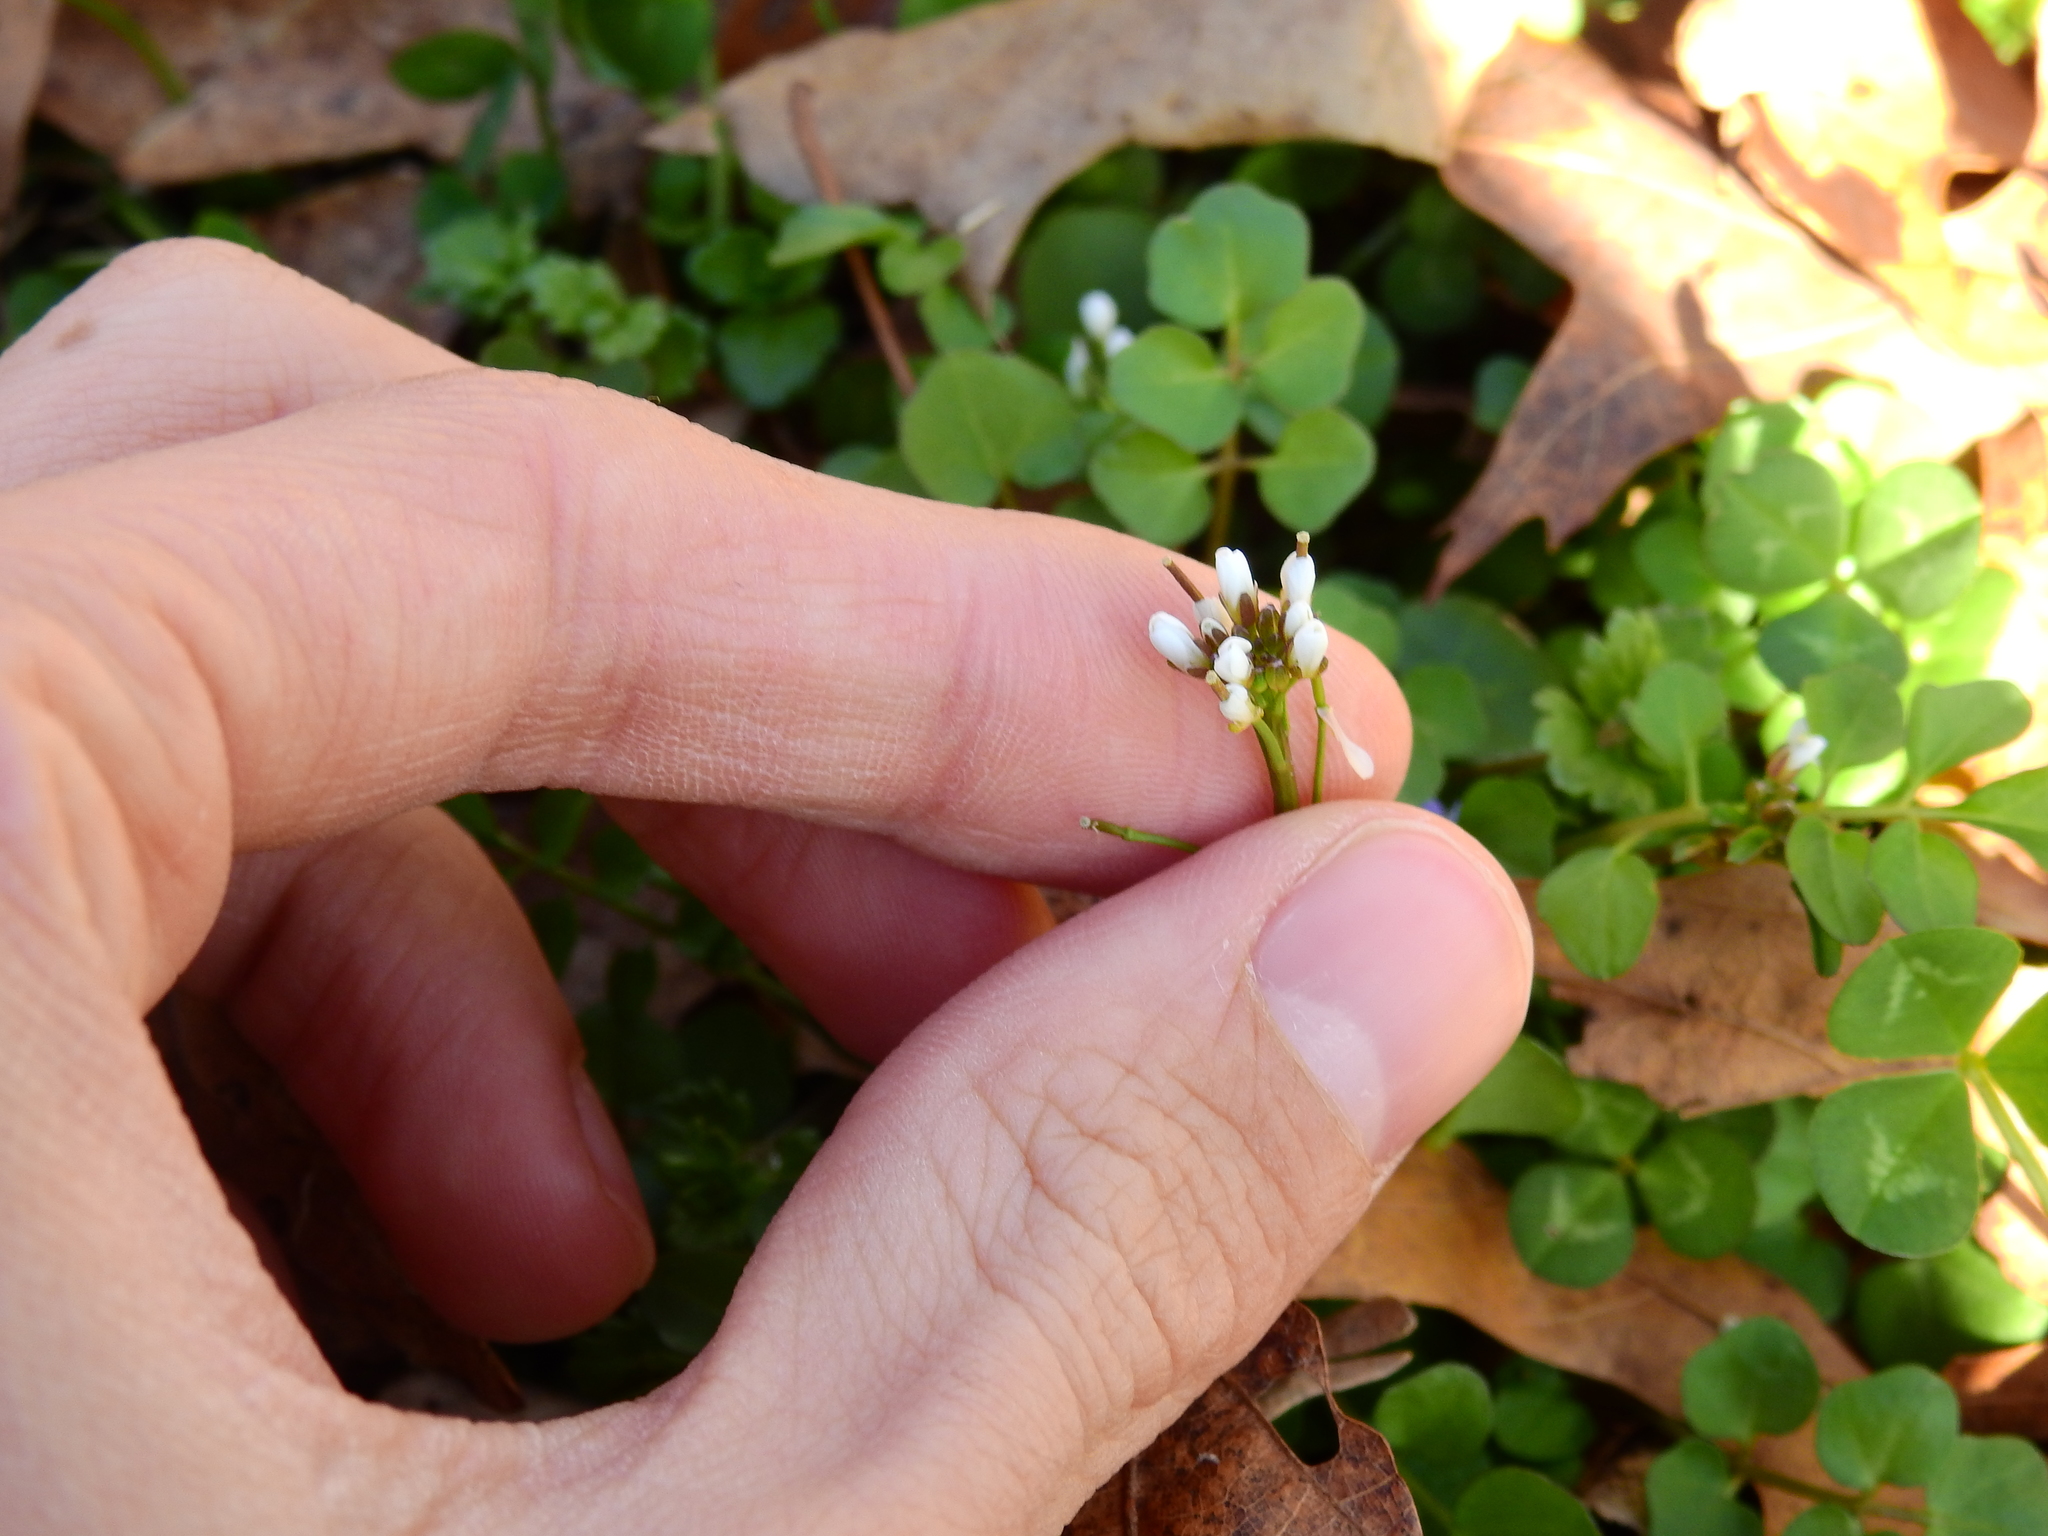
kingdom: Plantae
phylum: Tracheophyta
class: Magnoliopsida
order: Brassicales
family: Brassicaceae
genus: Cardamine
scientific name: Cardamine hirsuta
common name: Hairy bittercress
